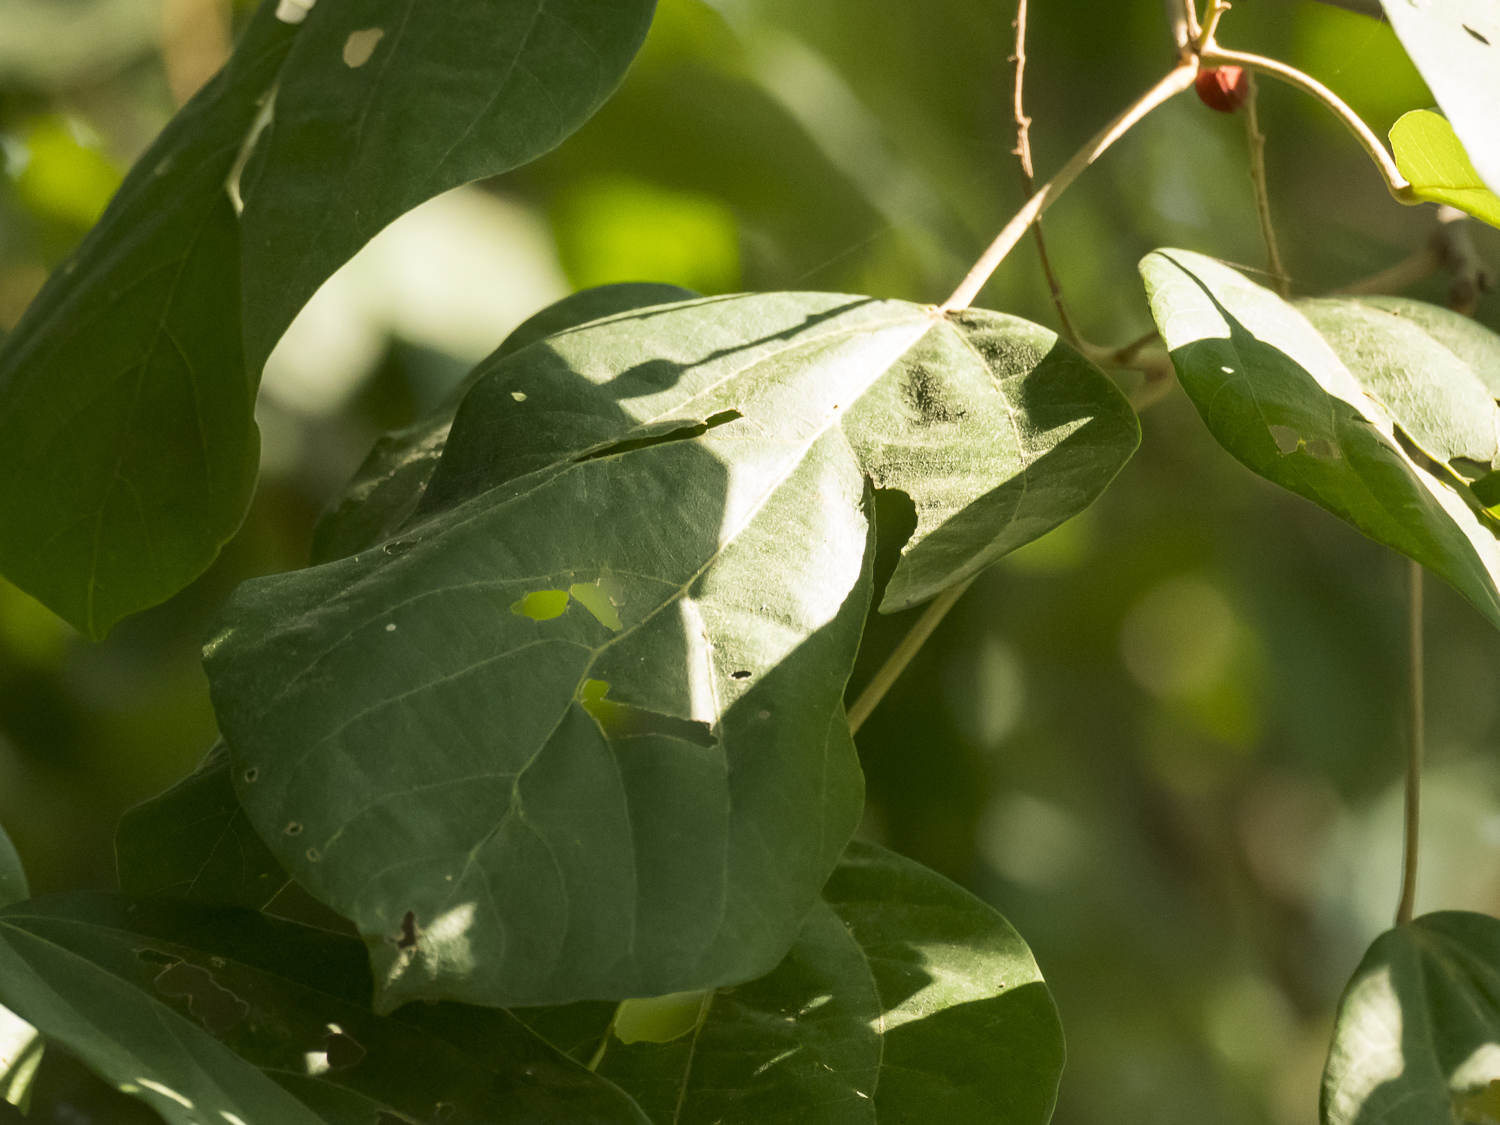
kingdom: Plantae
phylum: Tracheophyta
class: Magnoliopsida
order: Malpighiales
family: Euphorbiaceae
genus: Mallotus
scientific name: Mallotus philippensis
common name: Kamala tree
